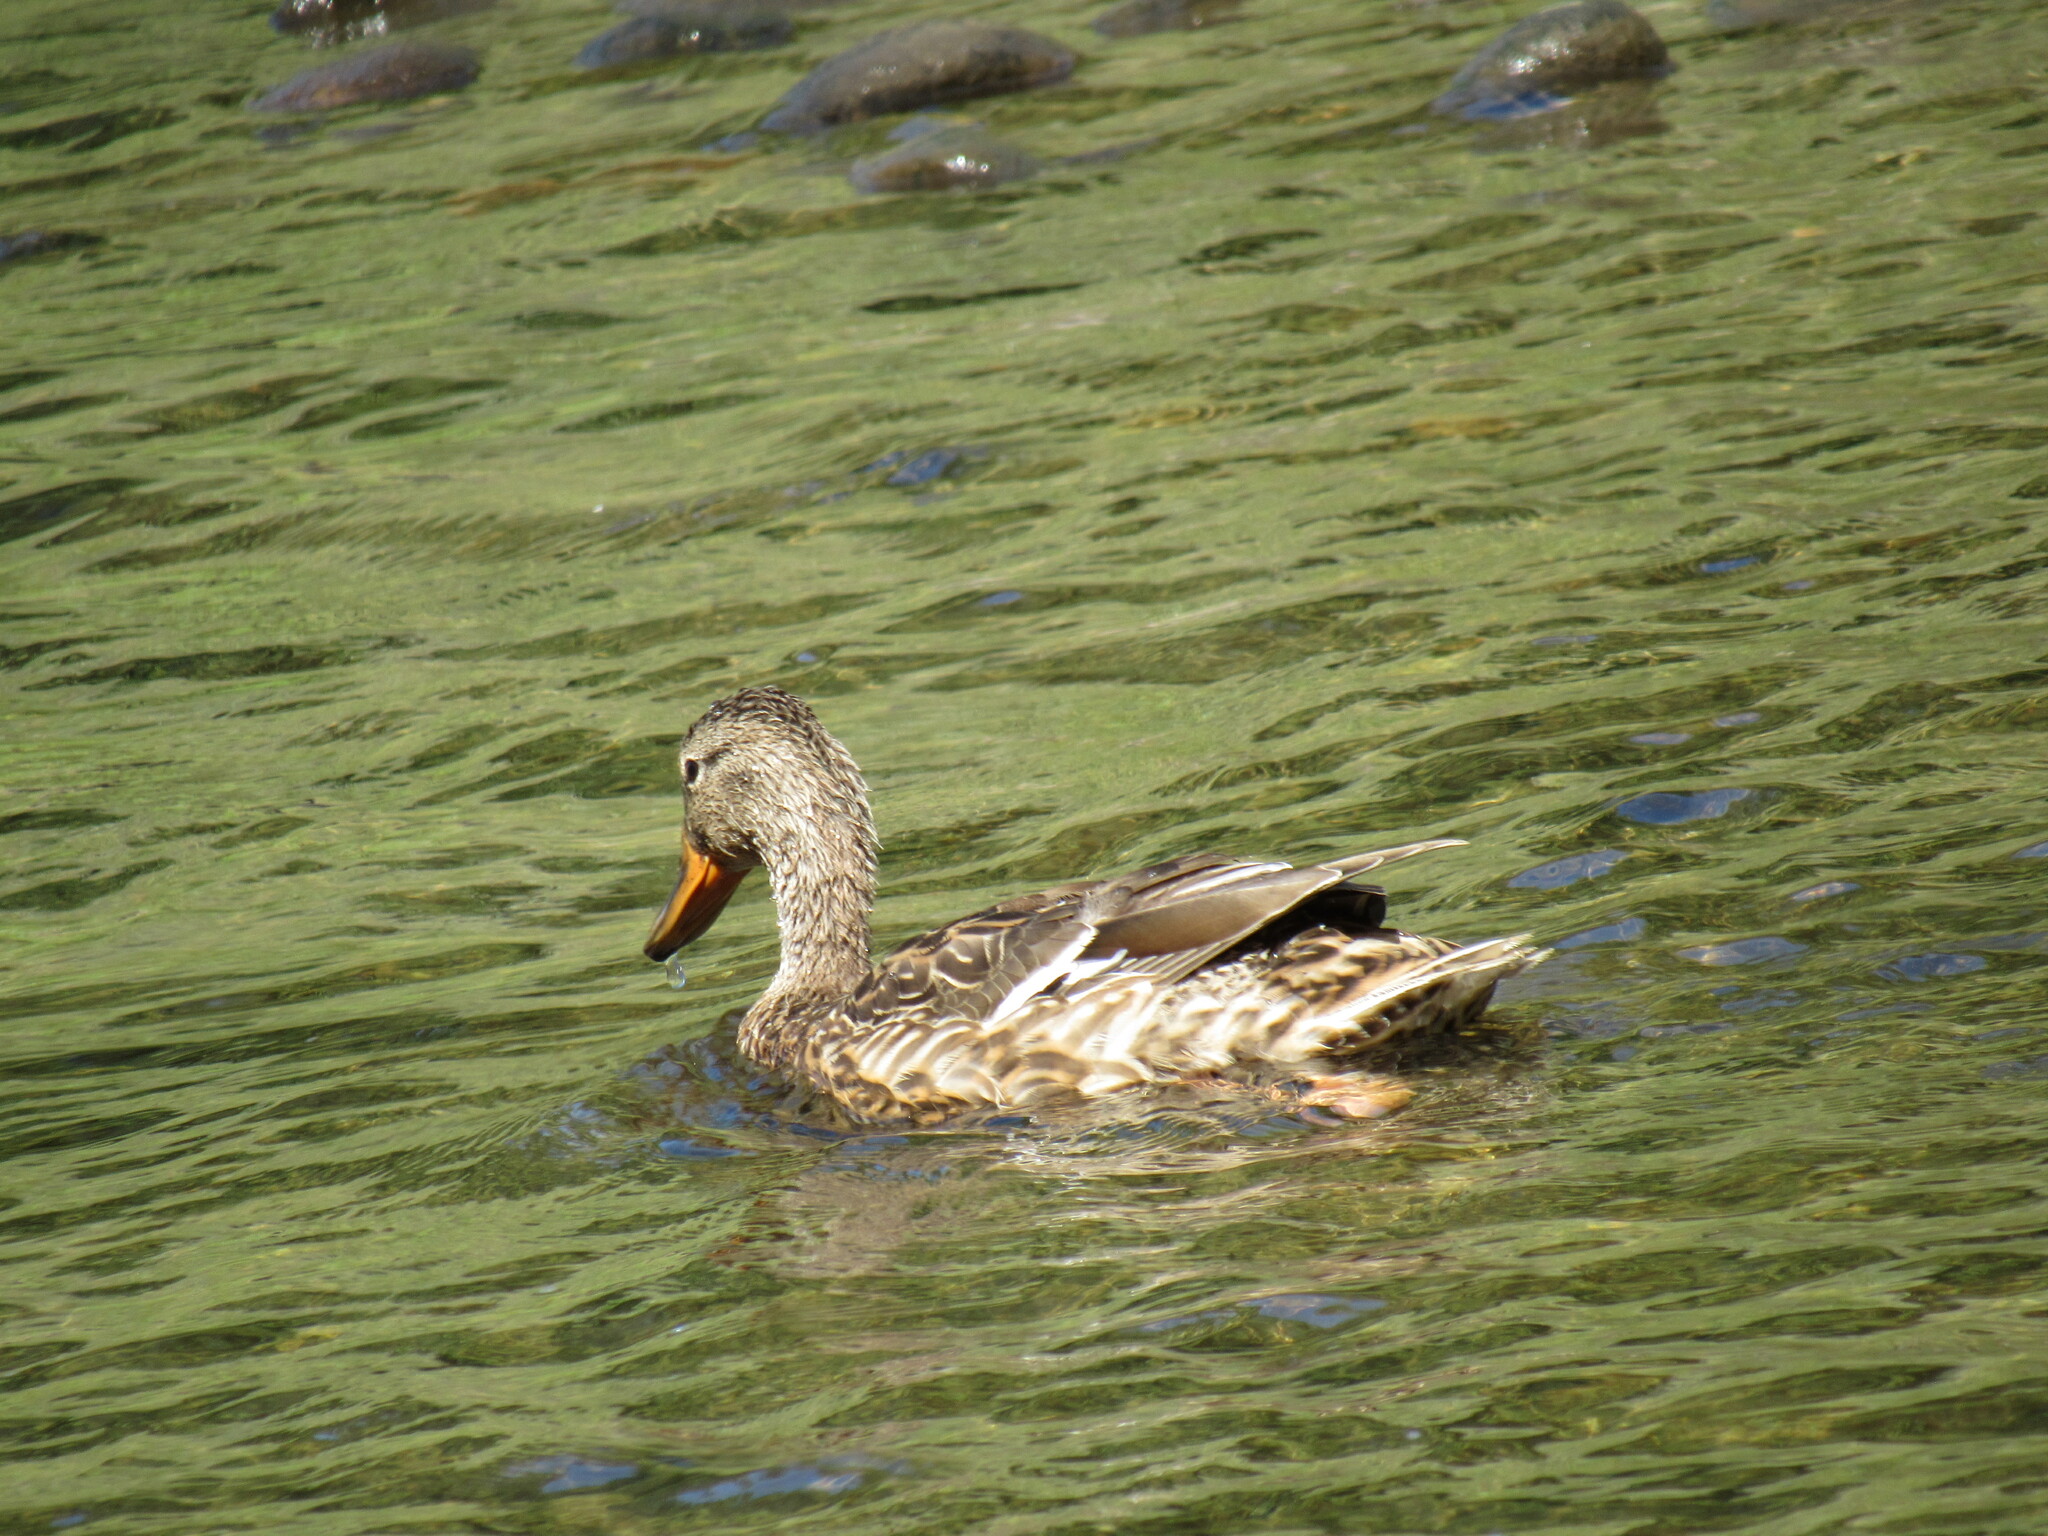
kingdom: Animalia
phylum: Chordata
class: Aves
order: Anseriformes
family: Anatidae
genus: Anas
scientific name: Anas platyrhynchos
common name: Mallard
